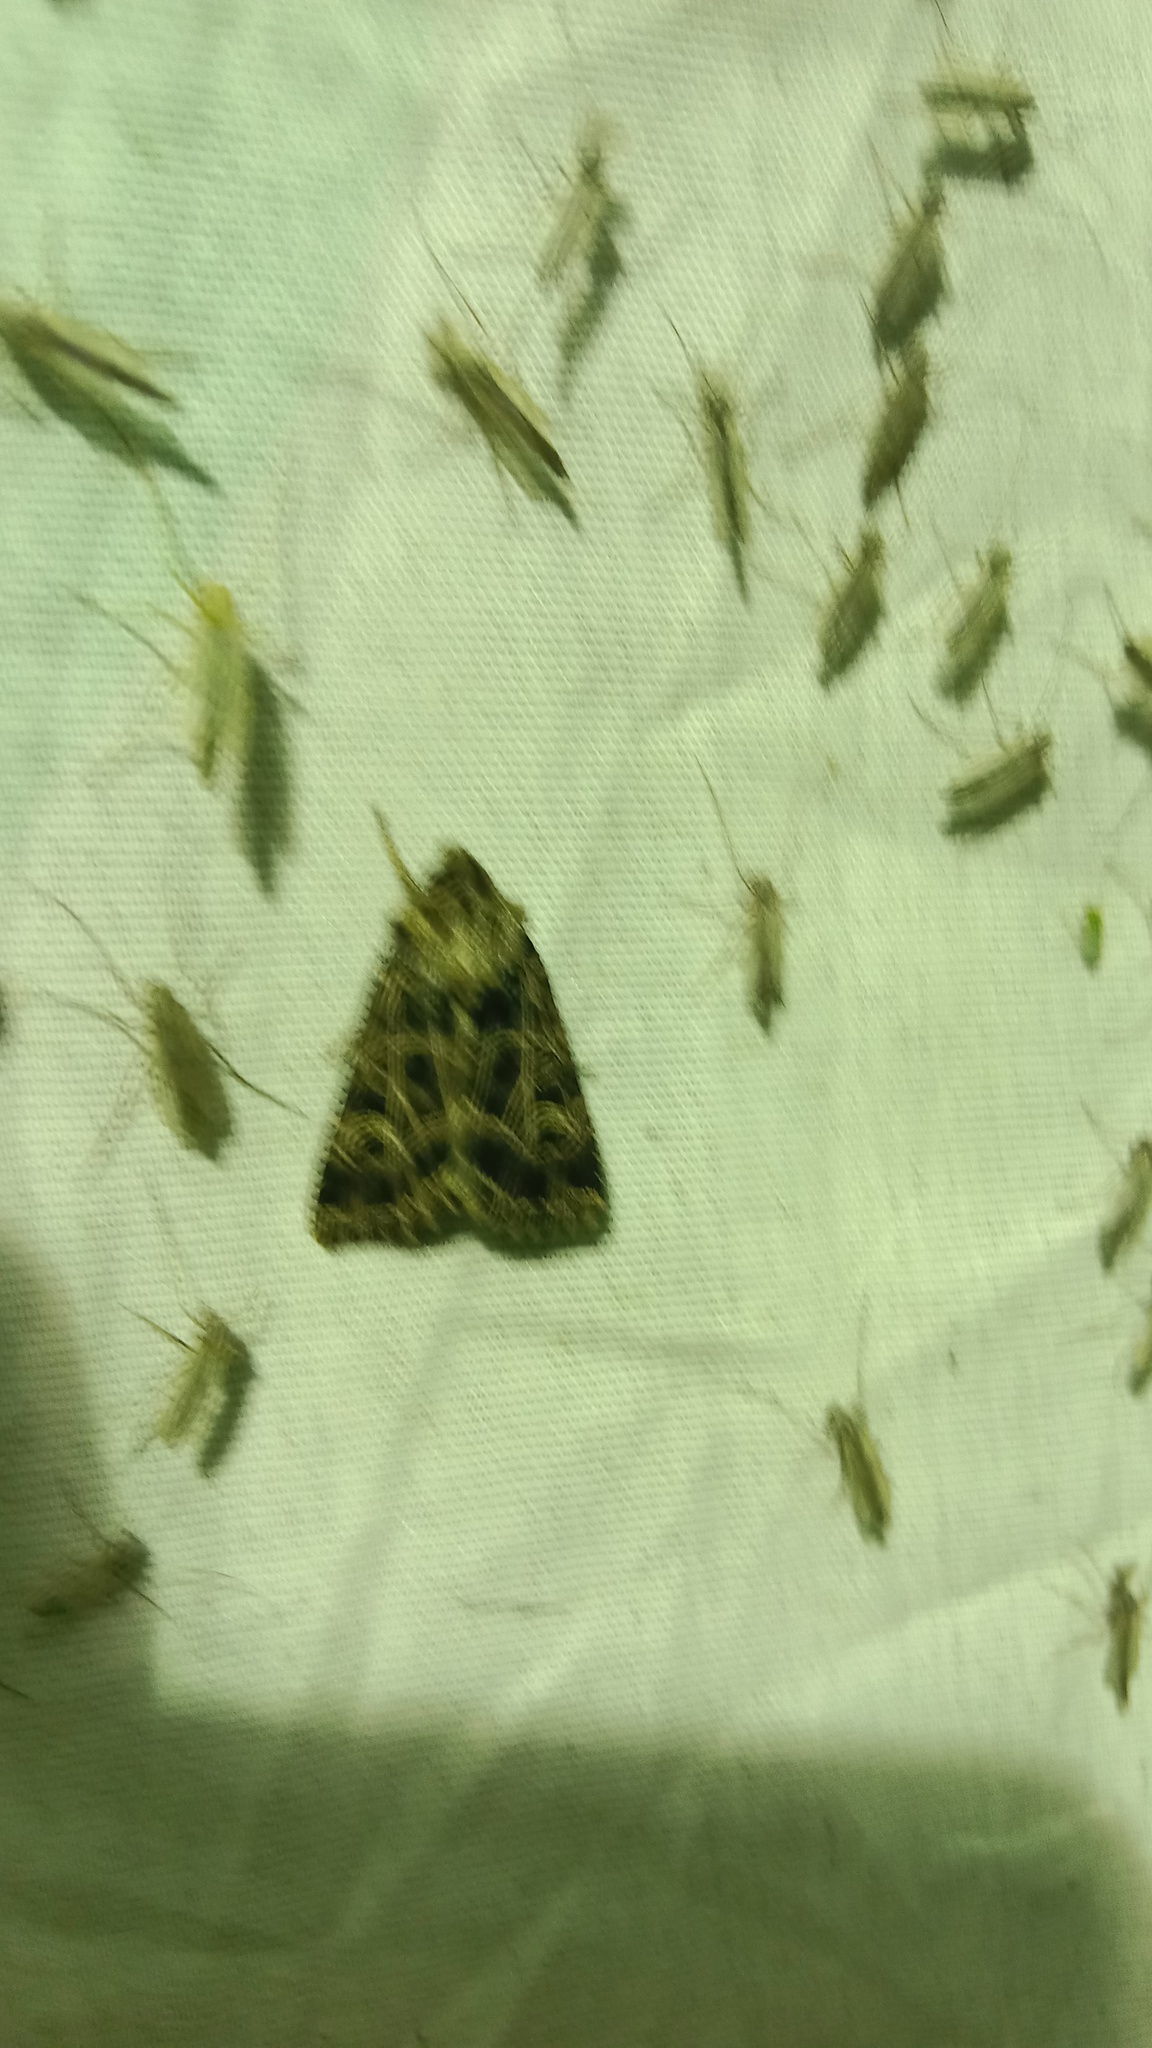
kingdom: Animalia
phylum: Arthropoda
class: Insecta
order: Lepidoptera
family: Noctuidae
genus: Sideridis
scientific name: Sideridis reticulata
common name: Bordered gothic
